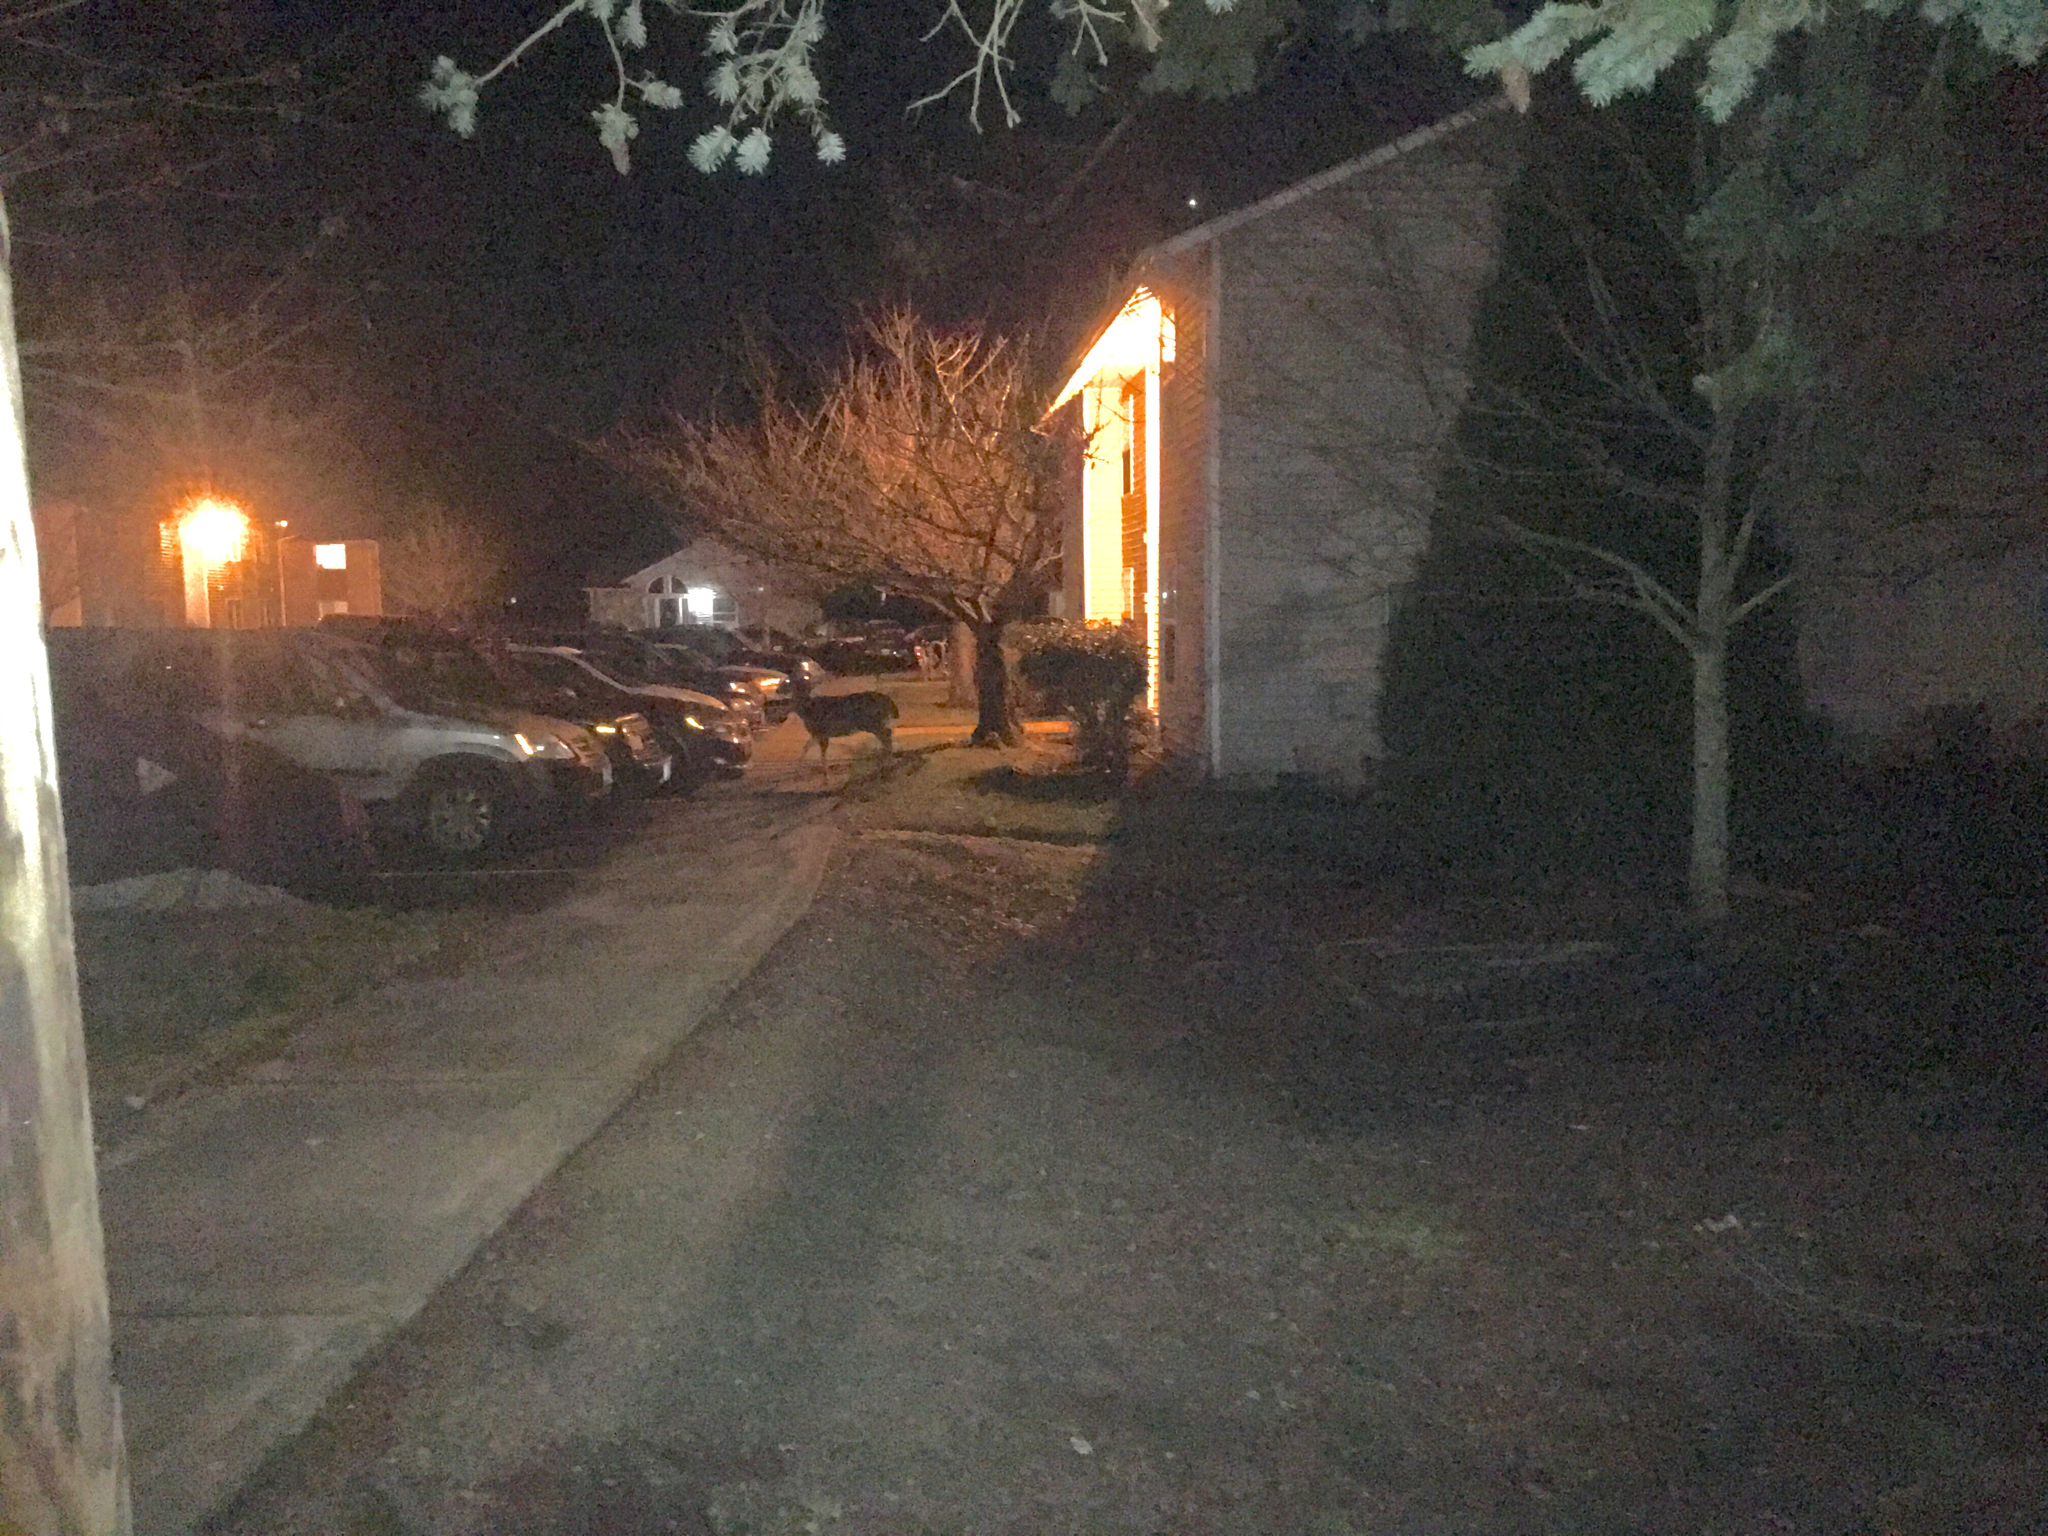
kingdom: Animalia
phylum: Chordata
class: Mammalia
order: Artiodactyla
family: Cervidae
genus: Odocoileus
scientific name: Odocoileus hemionus
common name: Mule deer
